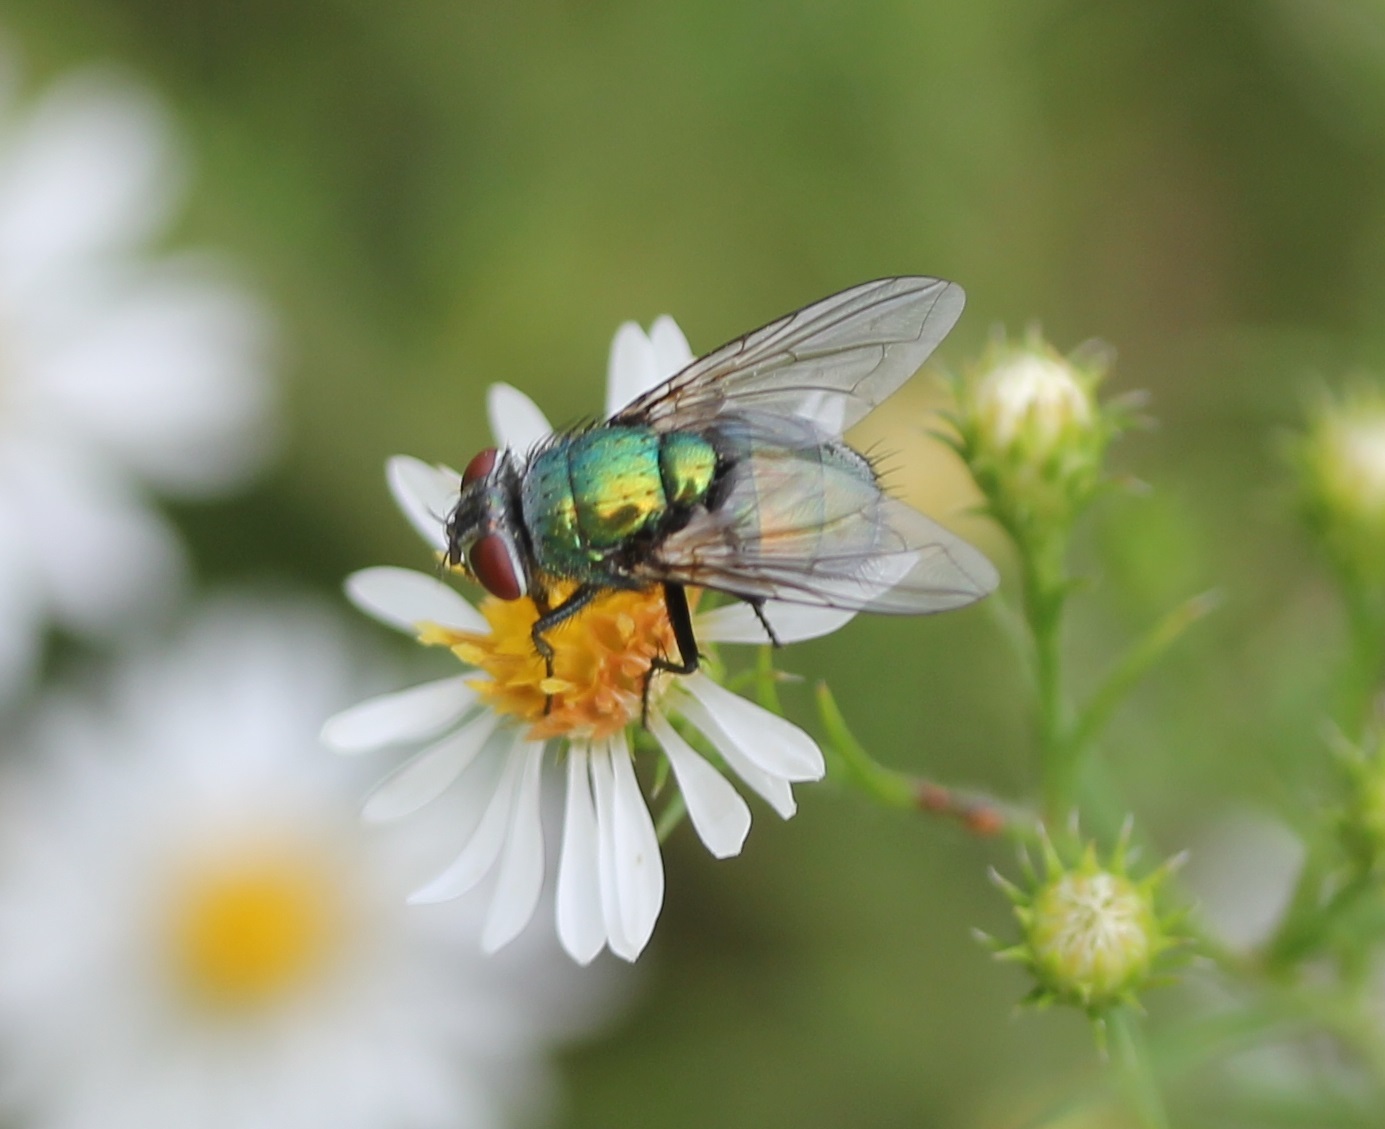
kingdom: Animalia
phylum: Arthropoda
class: Insecta
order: Diptera
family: Calliphoridae
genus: Lucilia
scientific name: Lucilia sericata
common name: Blow fly
